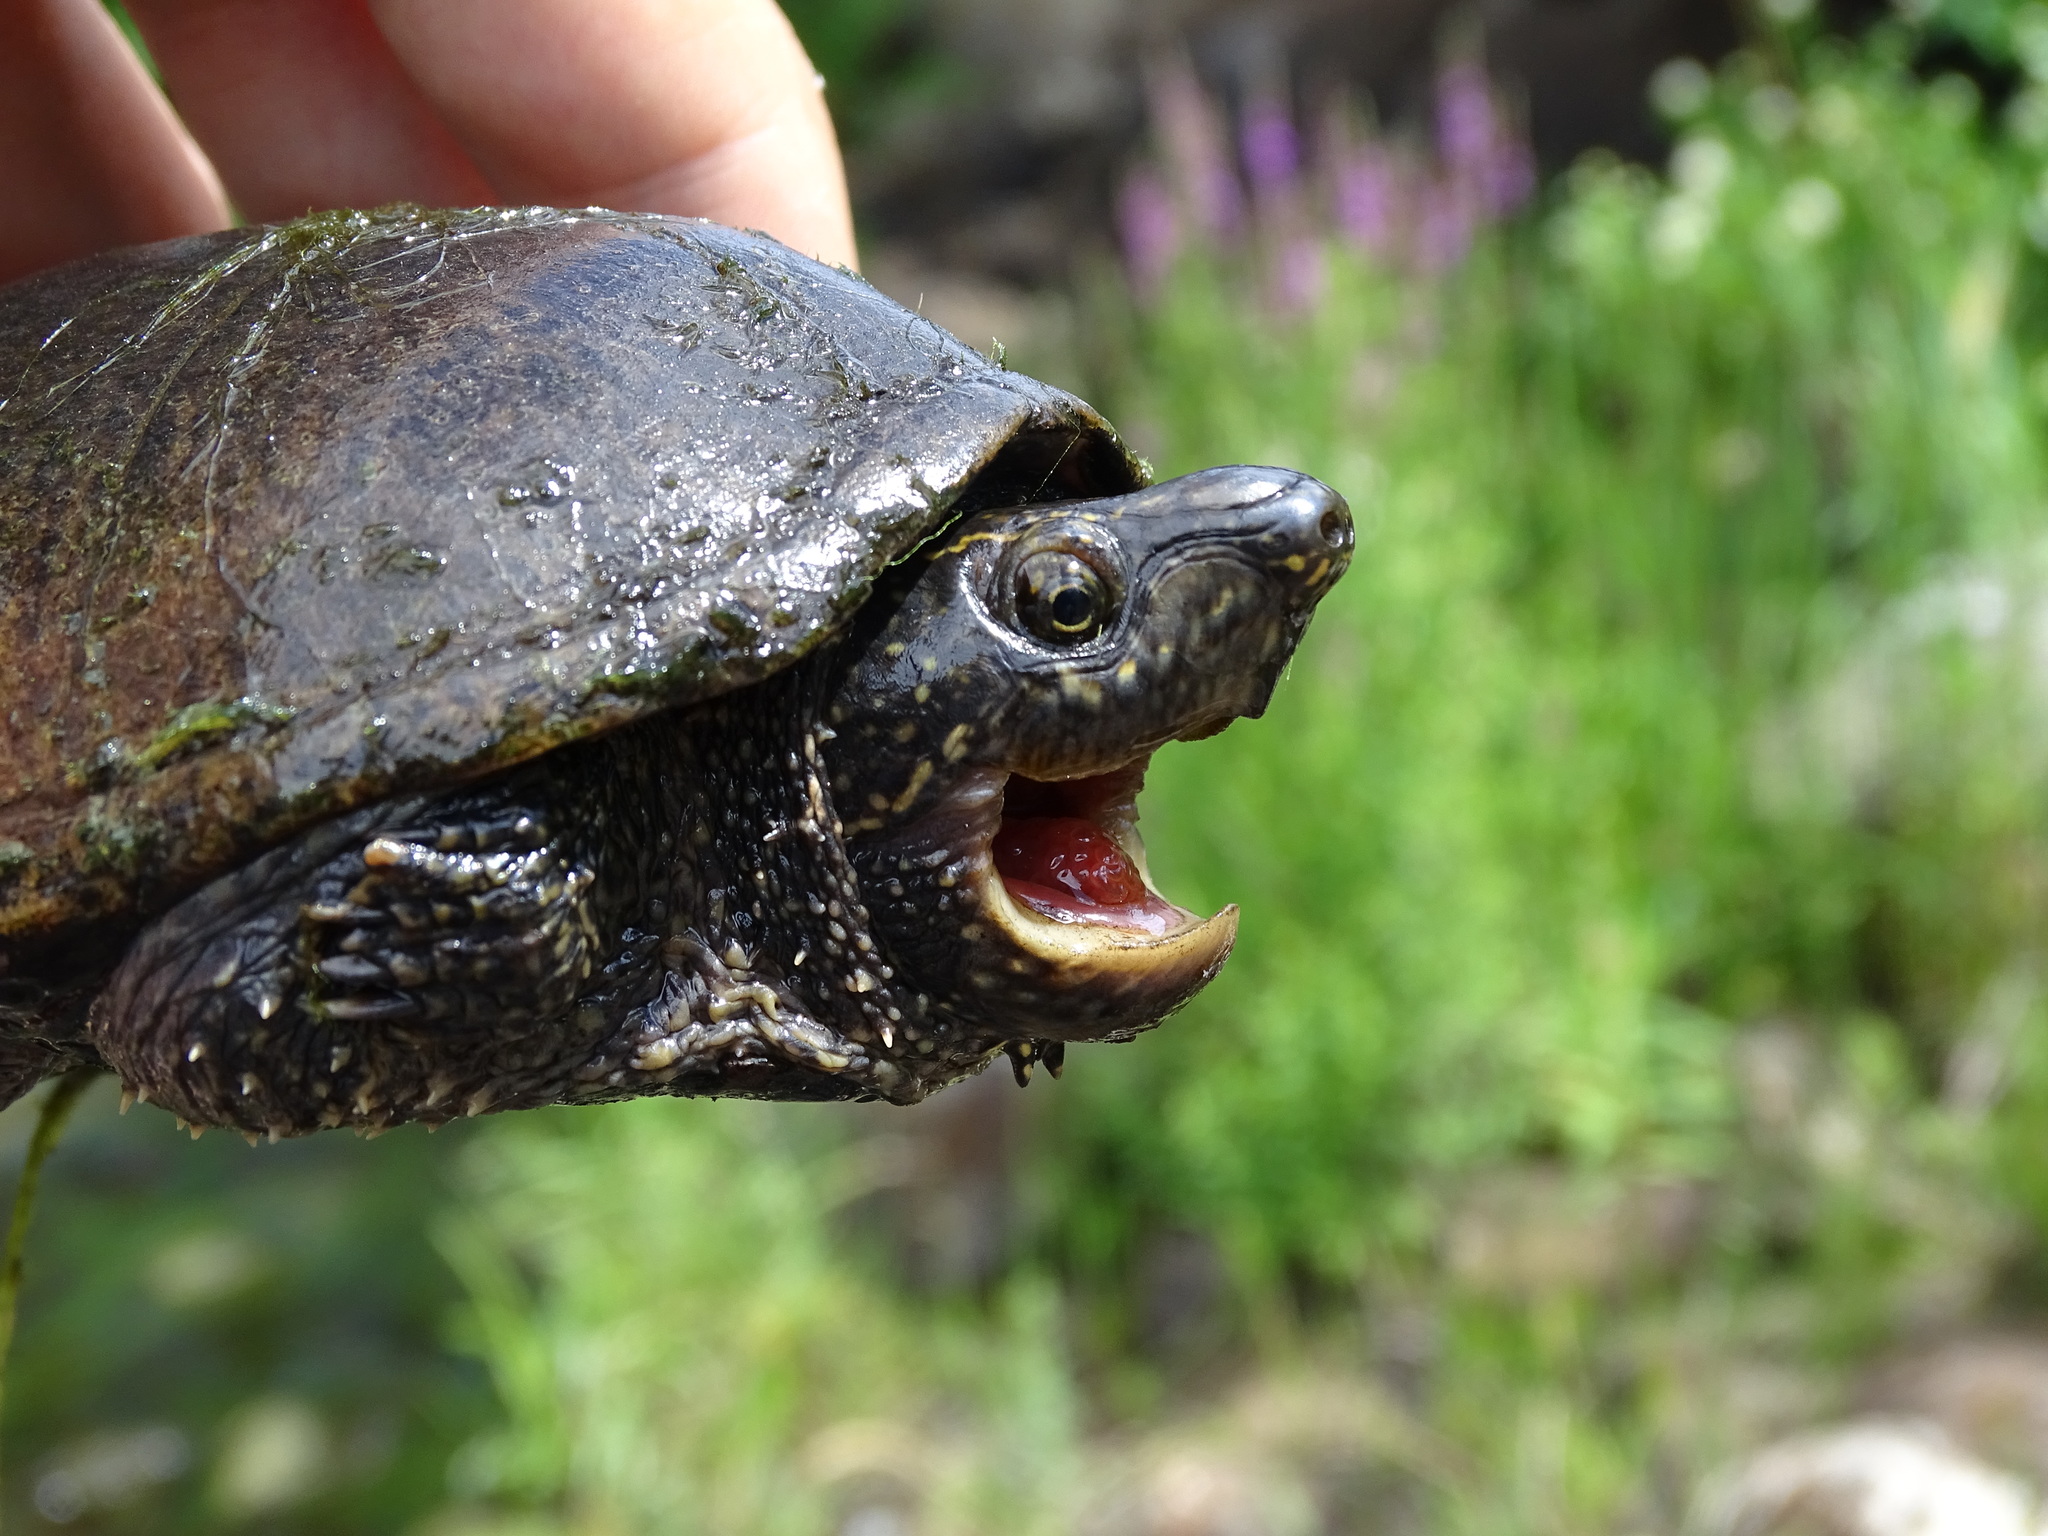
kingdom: Animalia
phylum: Chordata
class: Testudines
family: Kinosternidae
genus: Sternotherus
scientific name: Sternotherus odoratus
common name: Common musk turtle
